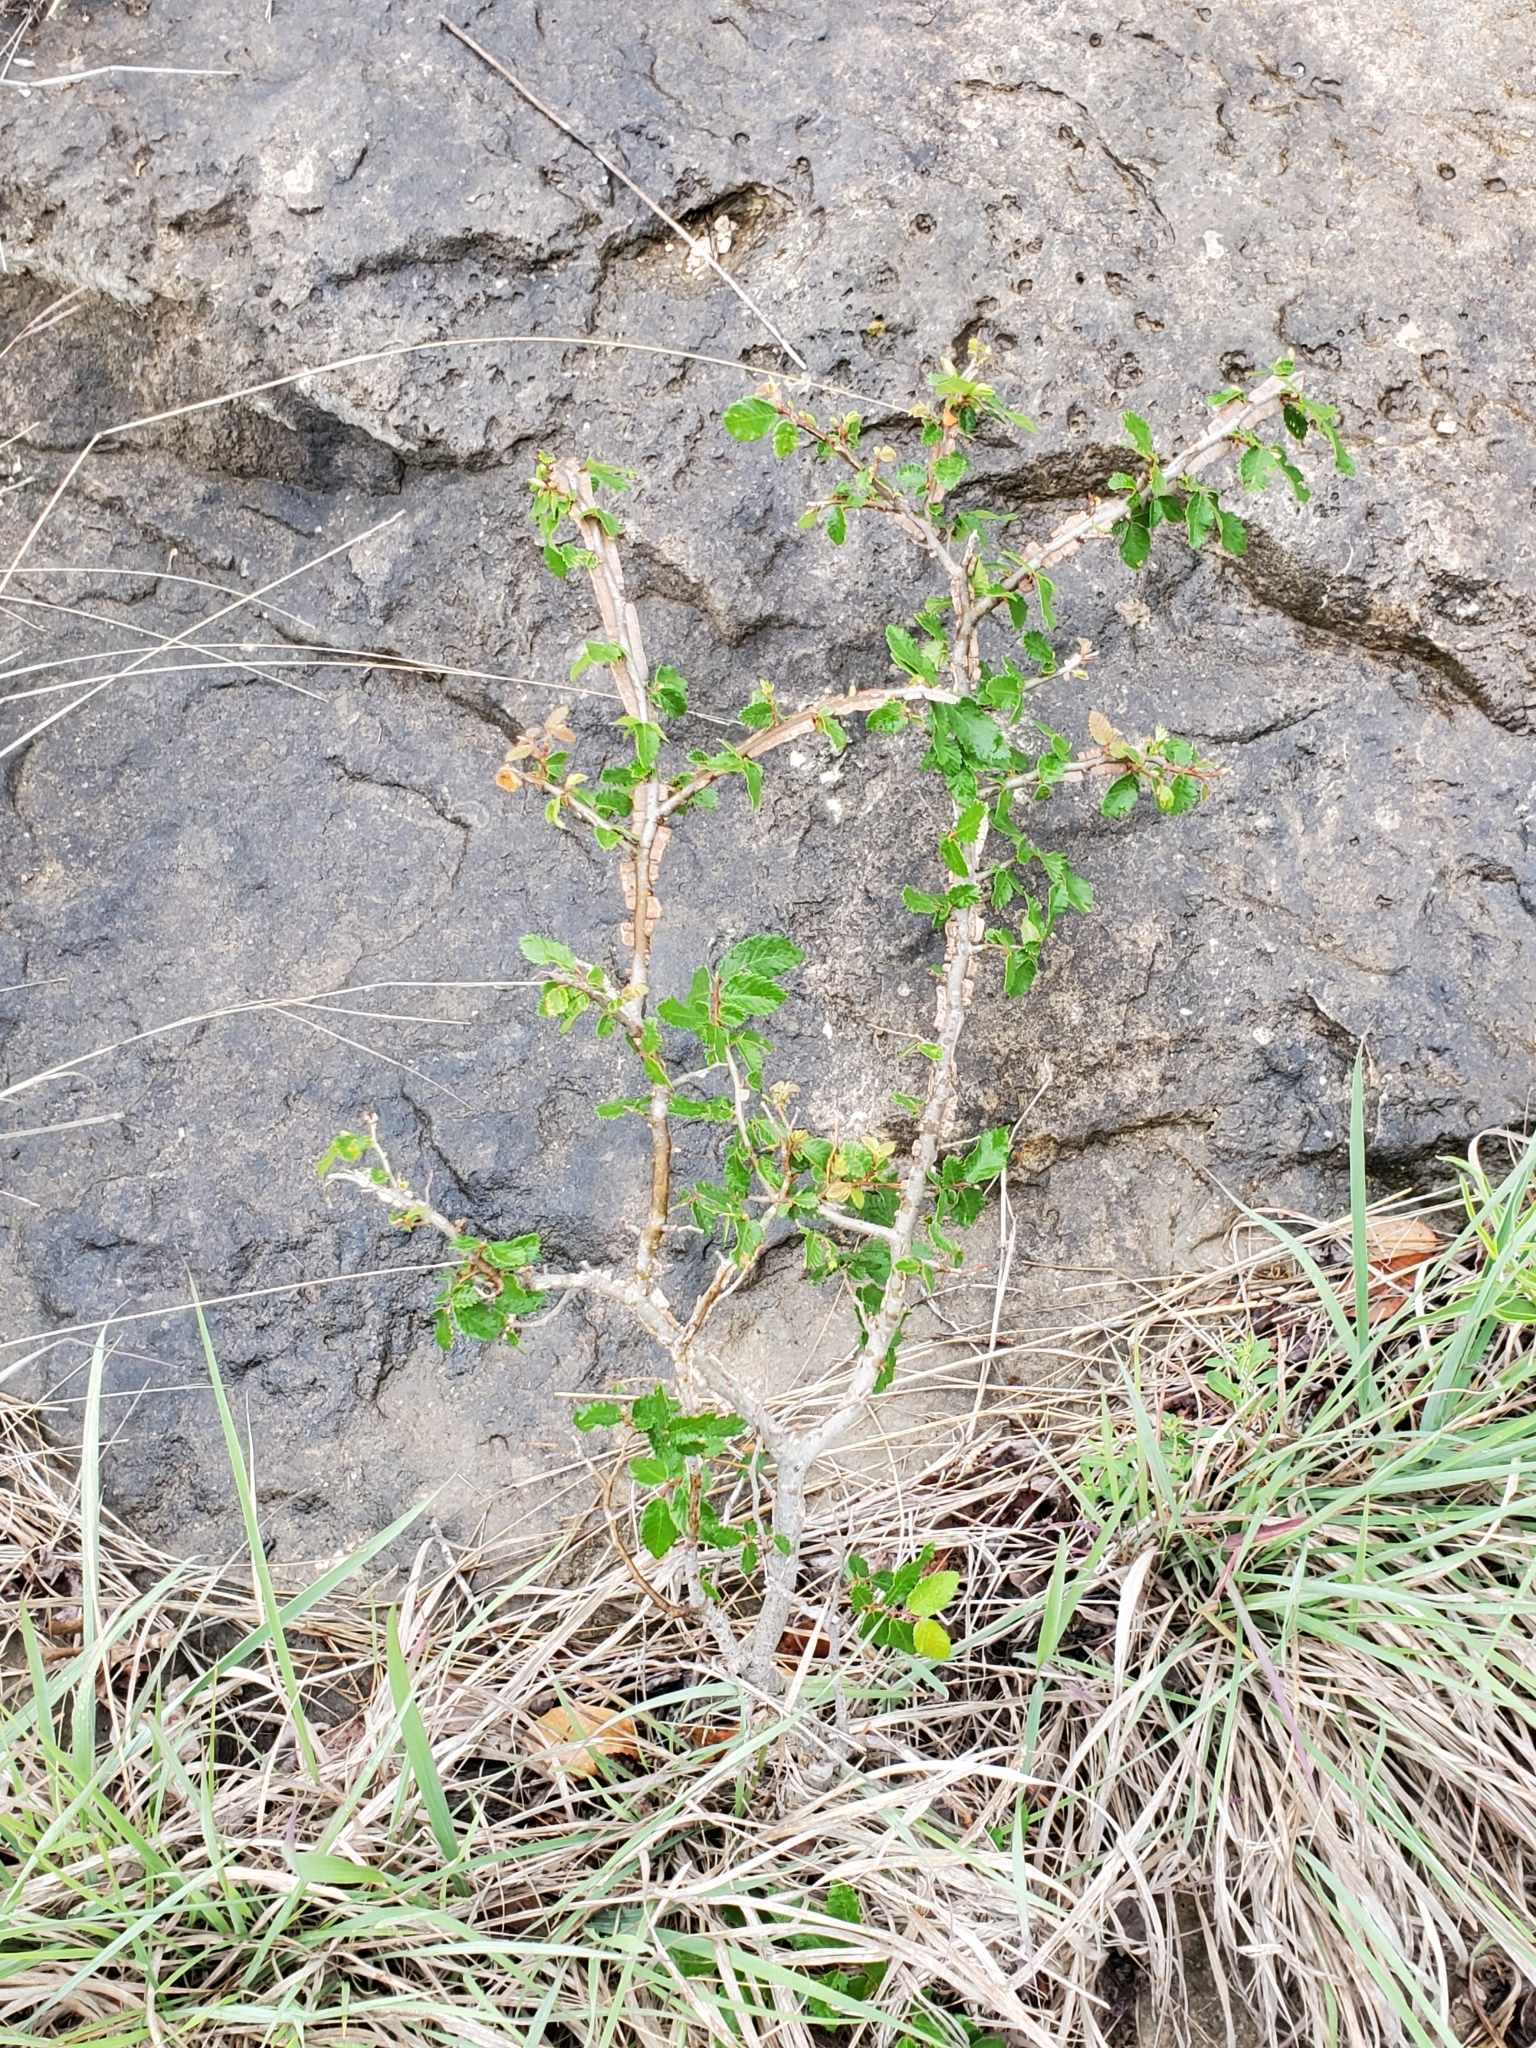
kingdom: Plantae
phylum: Tracheophyta
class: Magnoliopsida
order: Rosales
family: Ulmaceae
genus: Ulmus
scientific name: Ulmus crassifolia
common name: Basket elm
